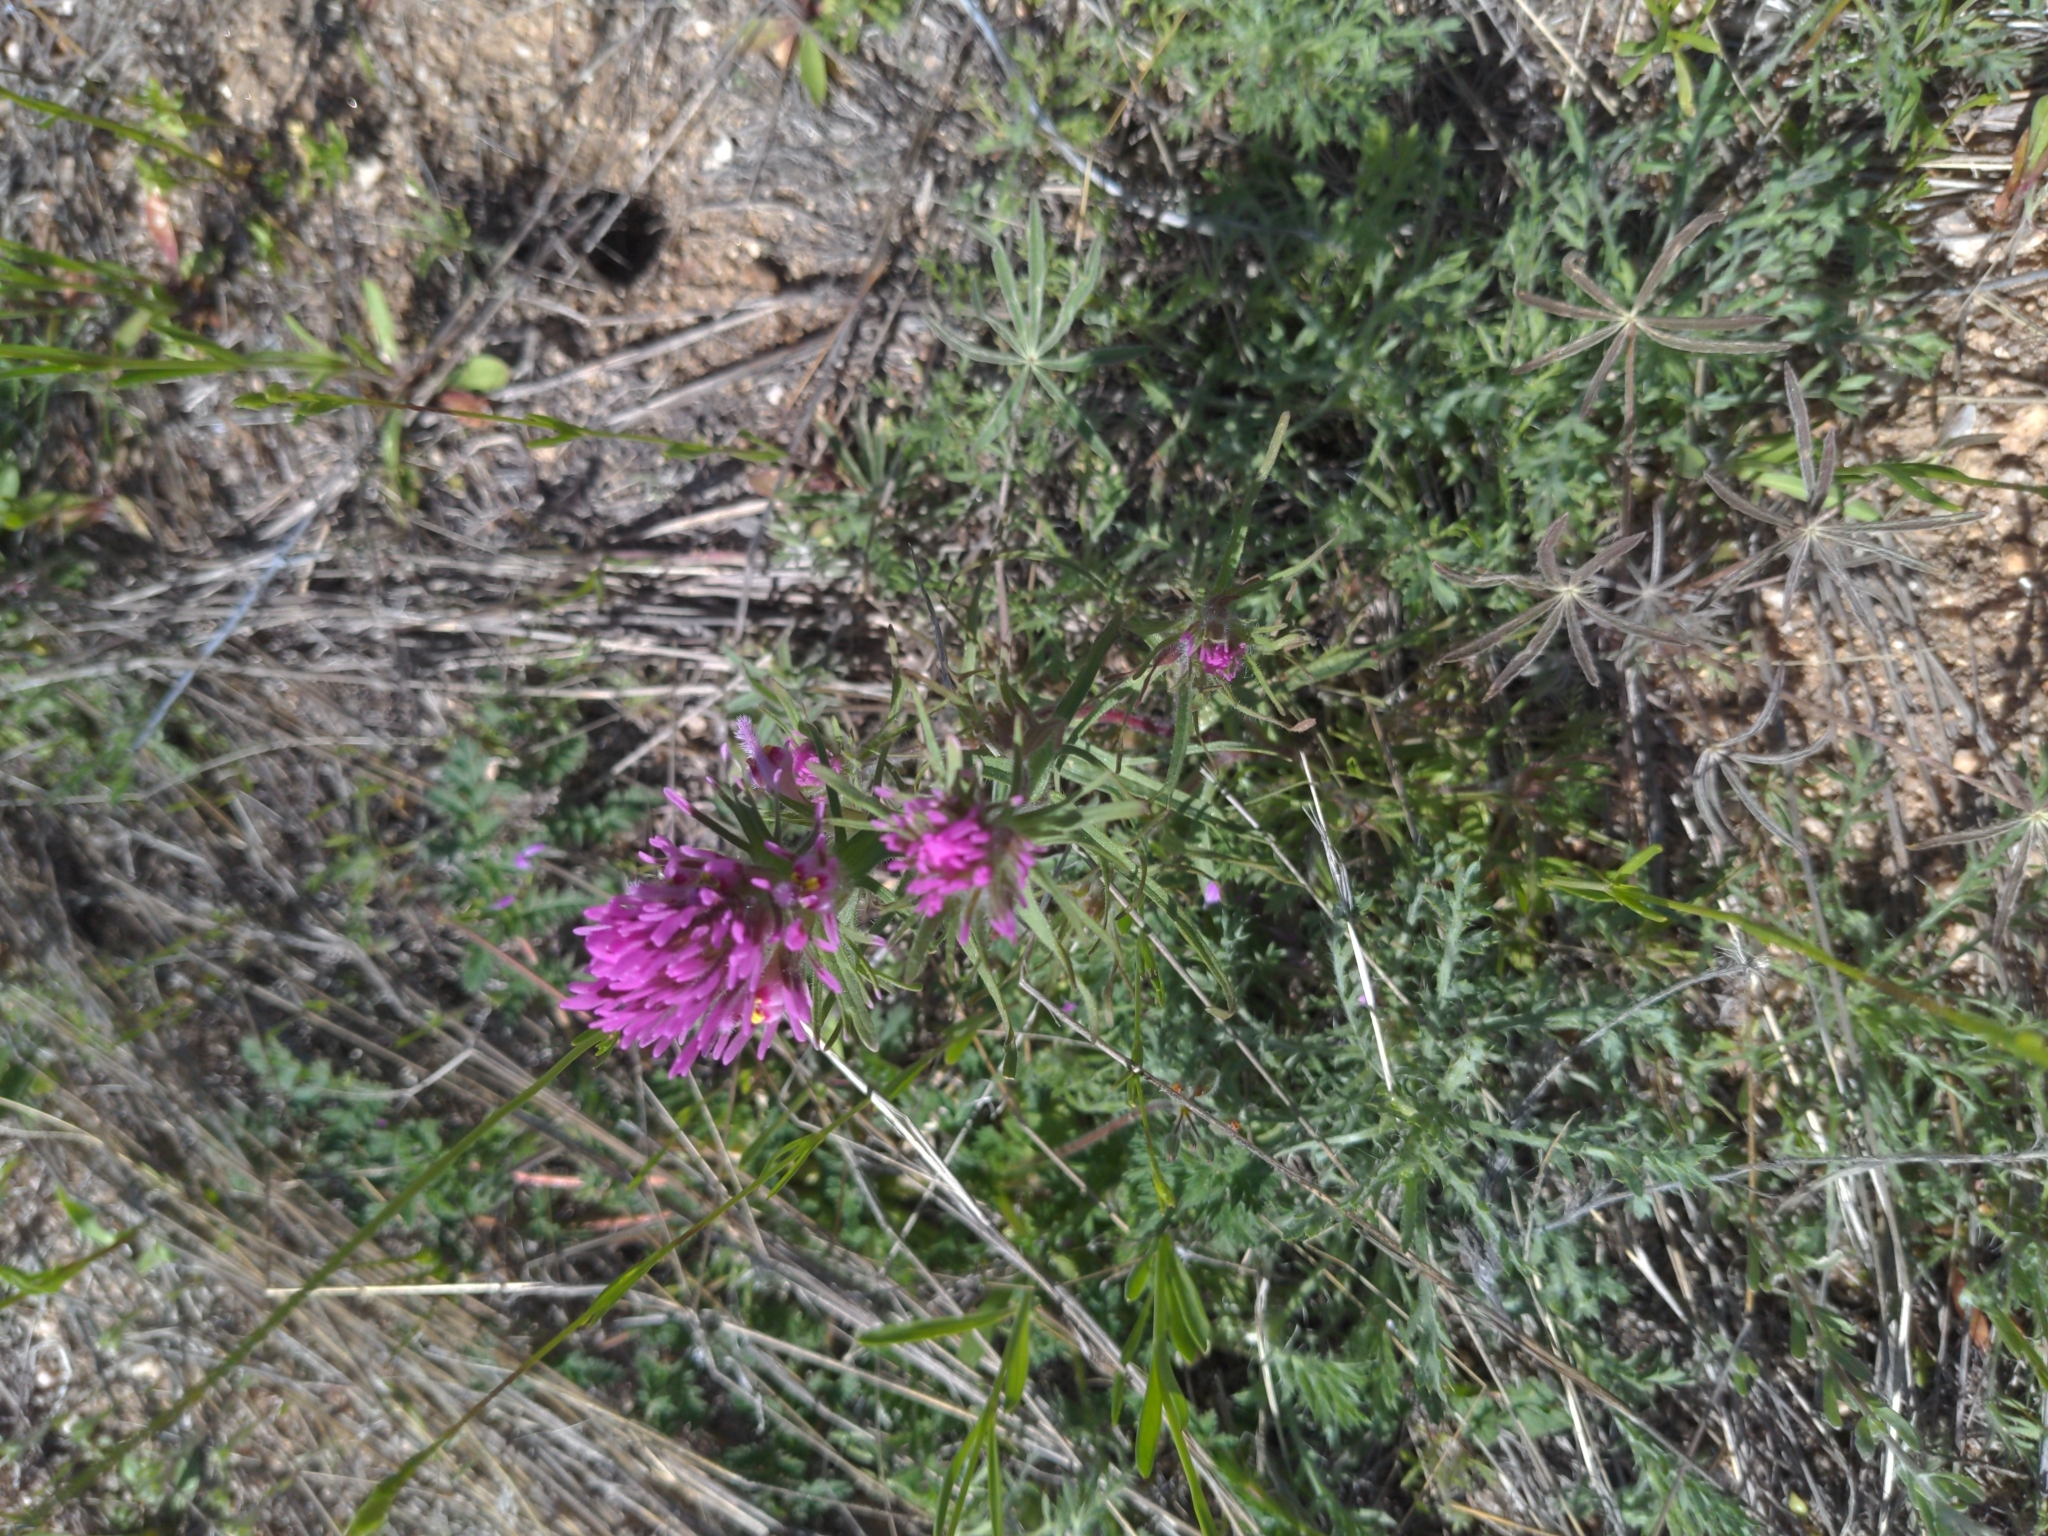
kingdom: Plantae
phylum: Tracheophyta
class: Magnoliopsida
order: Lamiales
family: Orobanchaceae
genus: Castilleja
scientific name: Castilleja exserta
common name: Purple owl-clover
